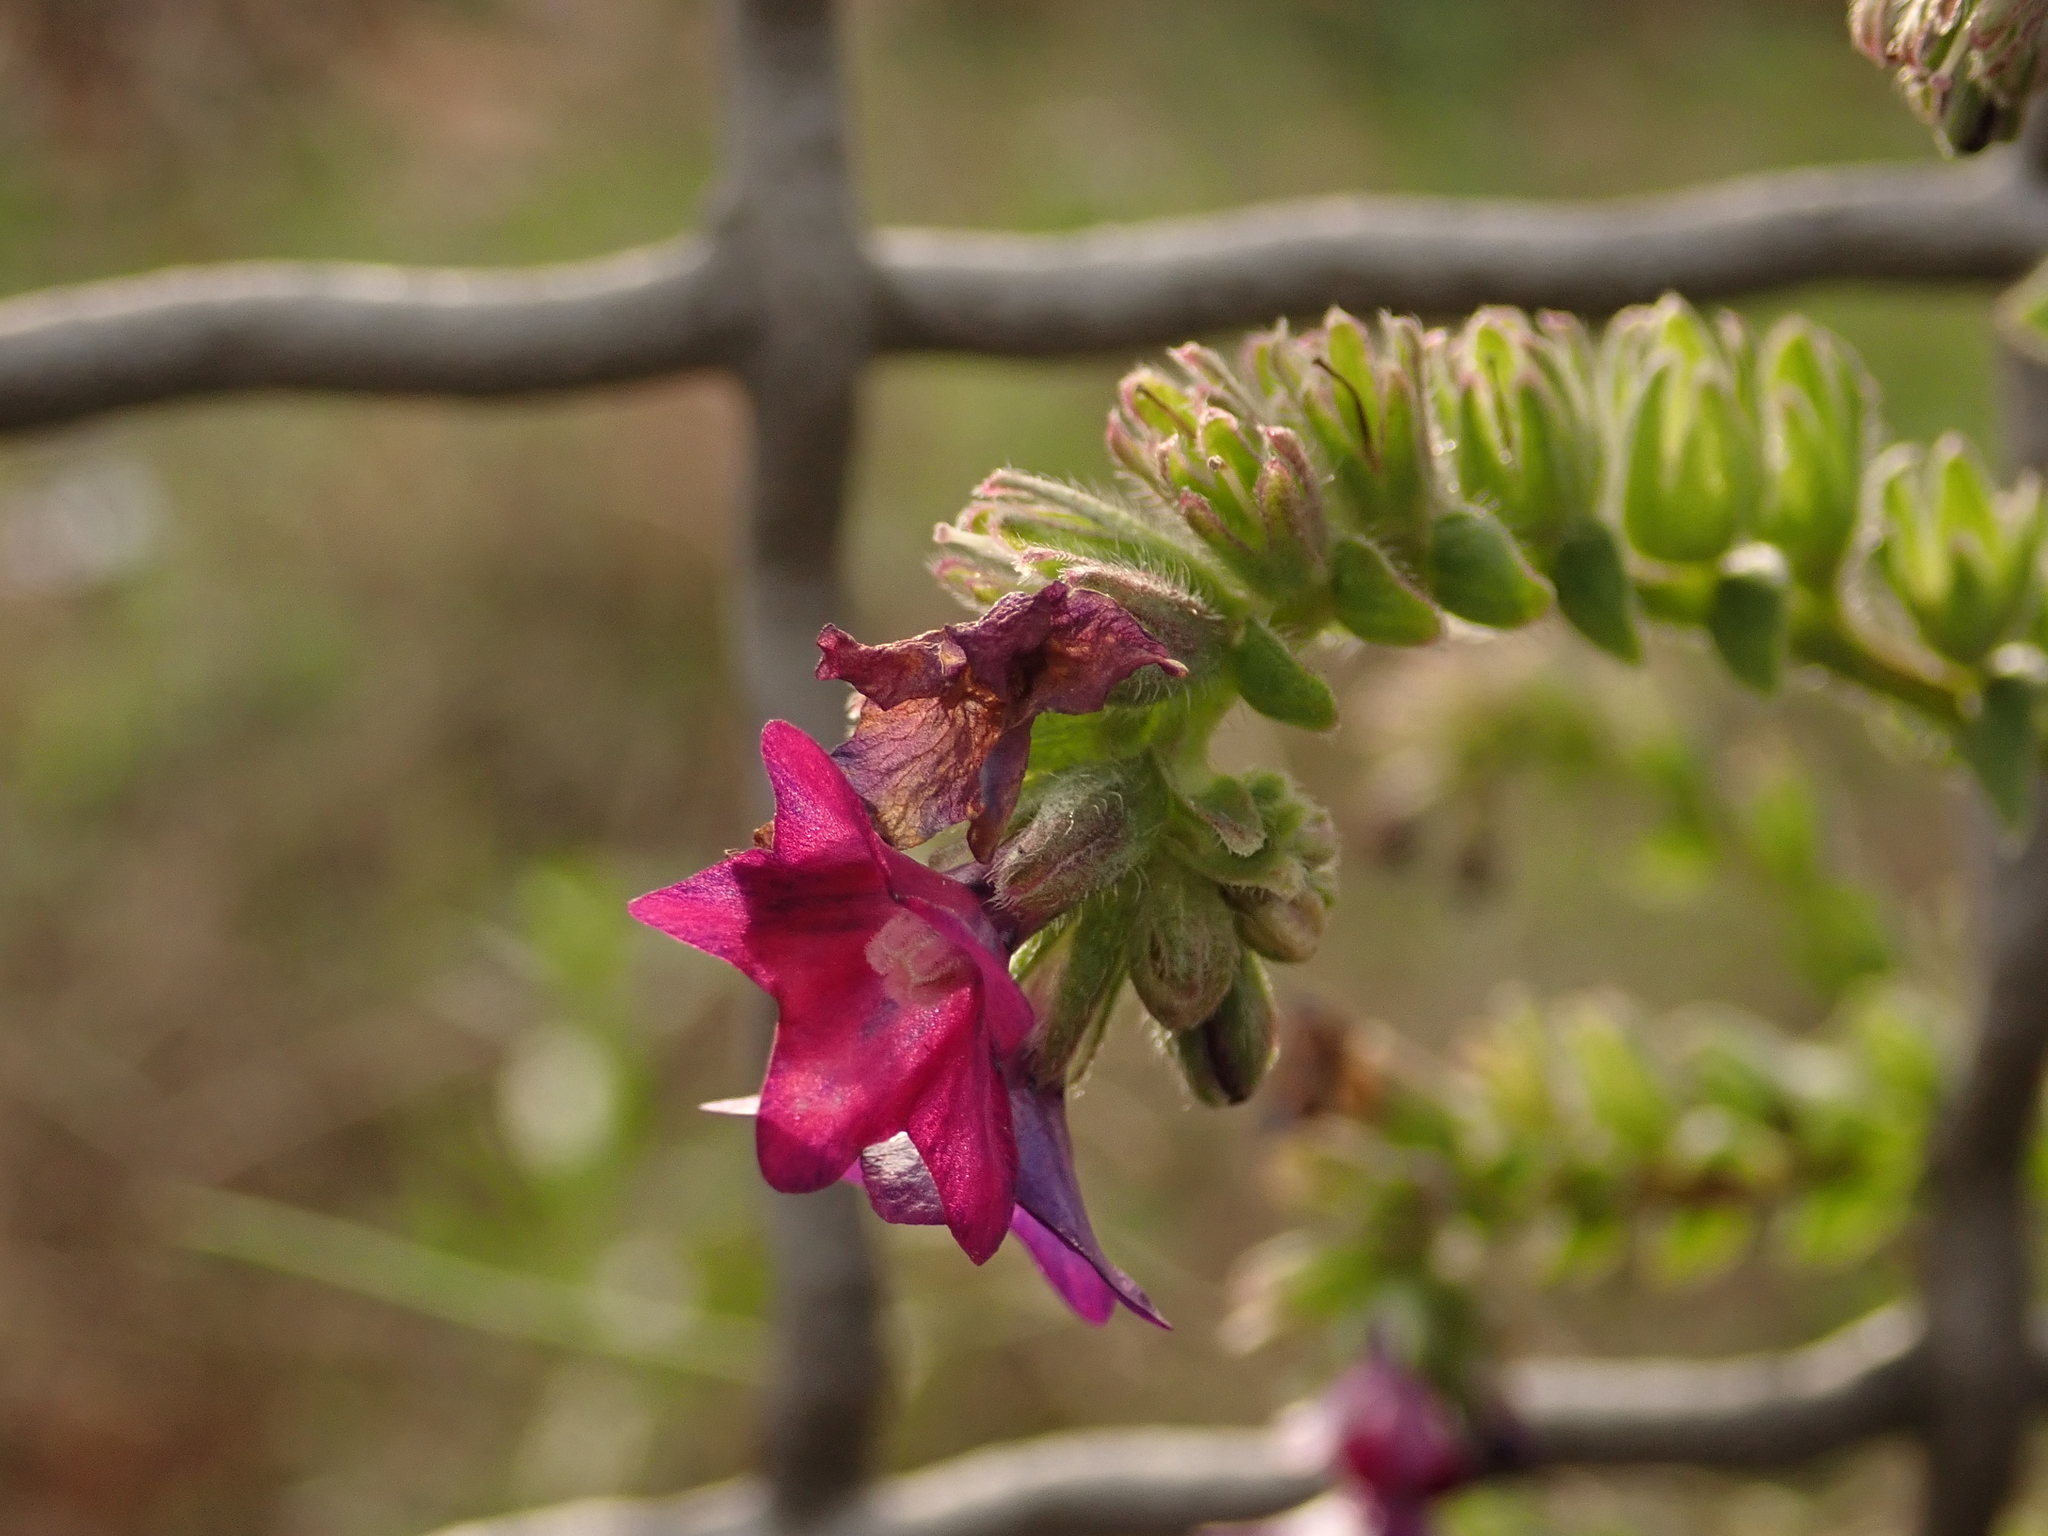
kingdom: Plantae
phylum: Tracheophyta
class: Magnoliopsida
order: Boraginales
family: Boraginaceae
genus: Anchusa
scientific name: Anchusa officinalis
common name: Alkanet
